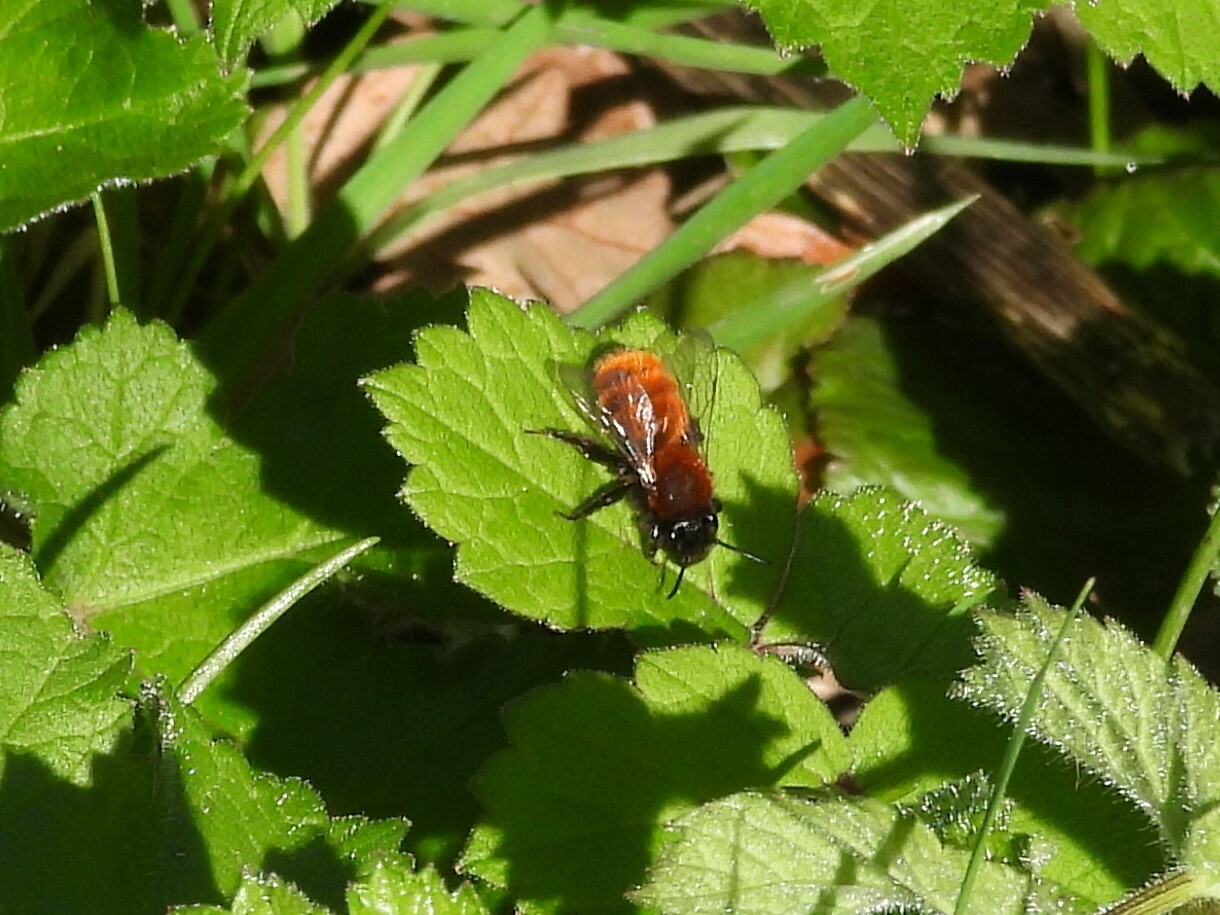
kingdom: Animalia
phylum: Arthropoda
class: Insecta
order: Hymenoptera
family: Andrenidae
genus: Andrena
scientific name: Andrena fulva
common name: Tawny mining bee
